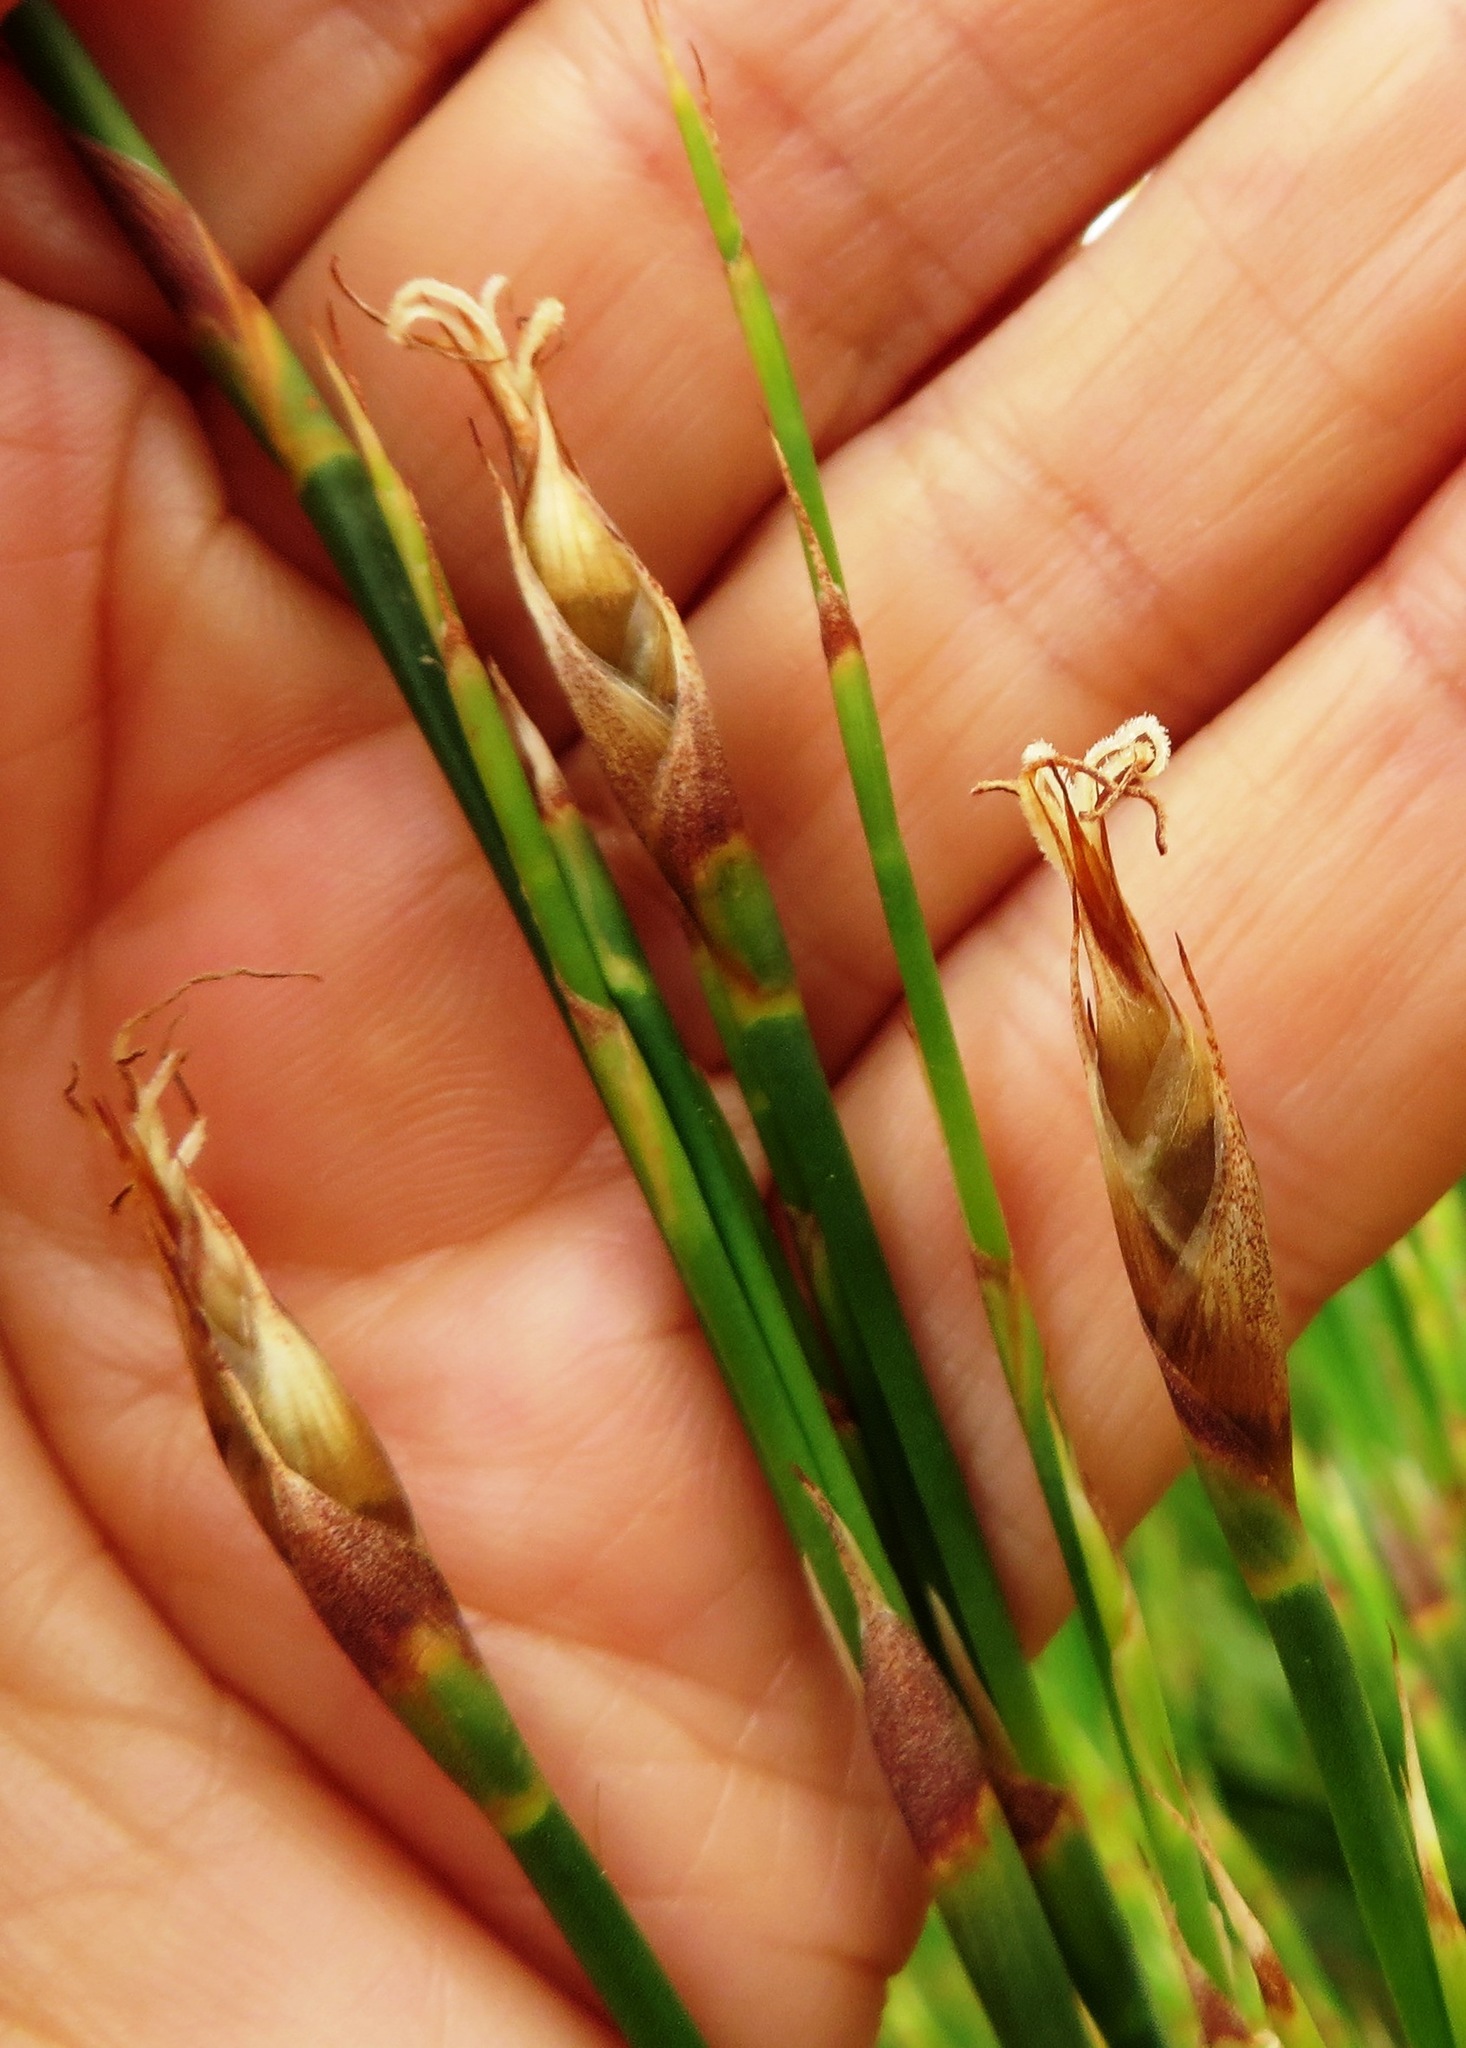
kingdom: Plantae
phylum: Tracheophyta
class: Liliopsida
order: Poales
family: Restionaceae
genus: Cannomois
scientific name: Cannomois virgata
